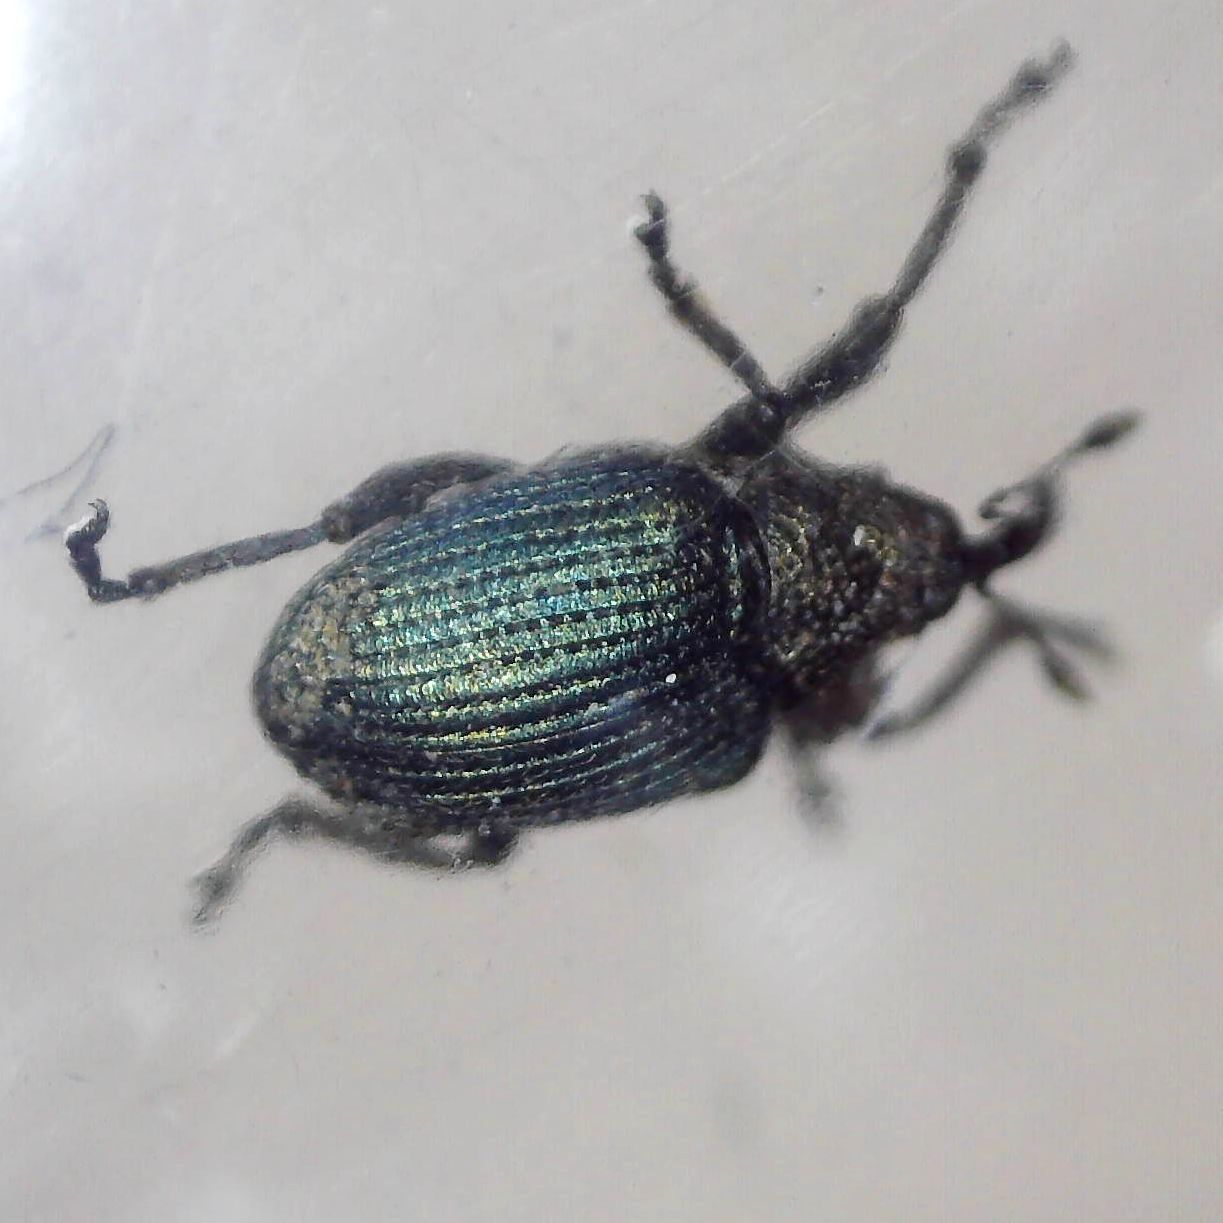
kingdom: Animalia
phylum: Arthropoda
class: Insecta
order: Coleoptera
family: Curculionidae
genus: Ceutorhynchus
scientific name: Ceutorhynchus erysimi
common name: Weevil
